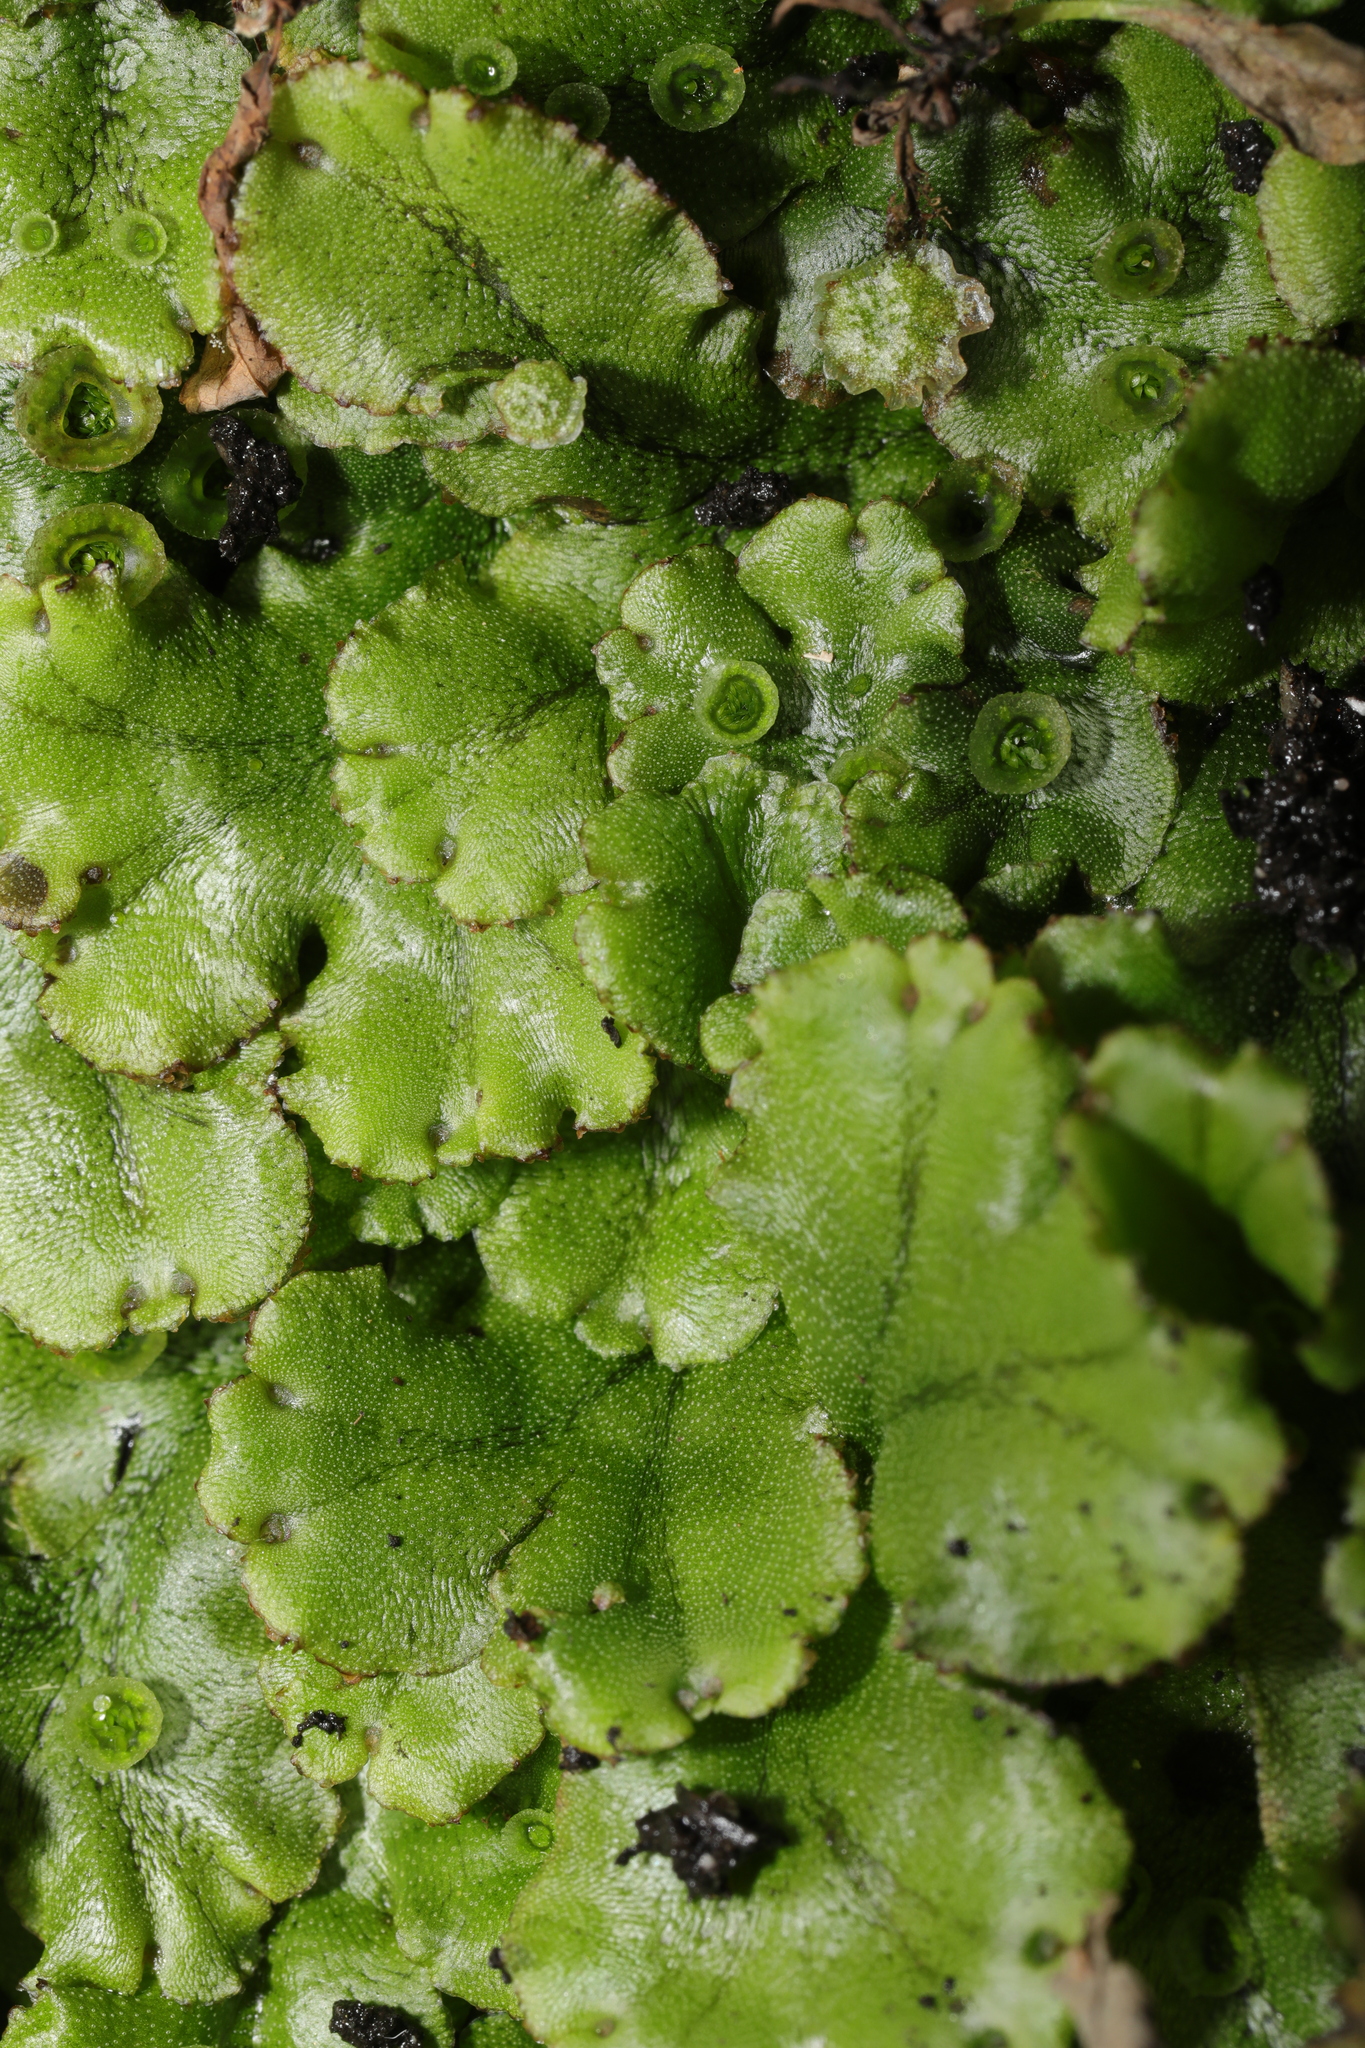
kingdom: Plantae
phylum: Marchantiophyta
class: Marchantiopsida
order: Marchantiales
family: Marchantiaceae
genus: Marchantia
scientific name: Marchantia polymorpha
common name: Common liverwort
